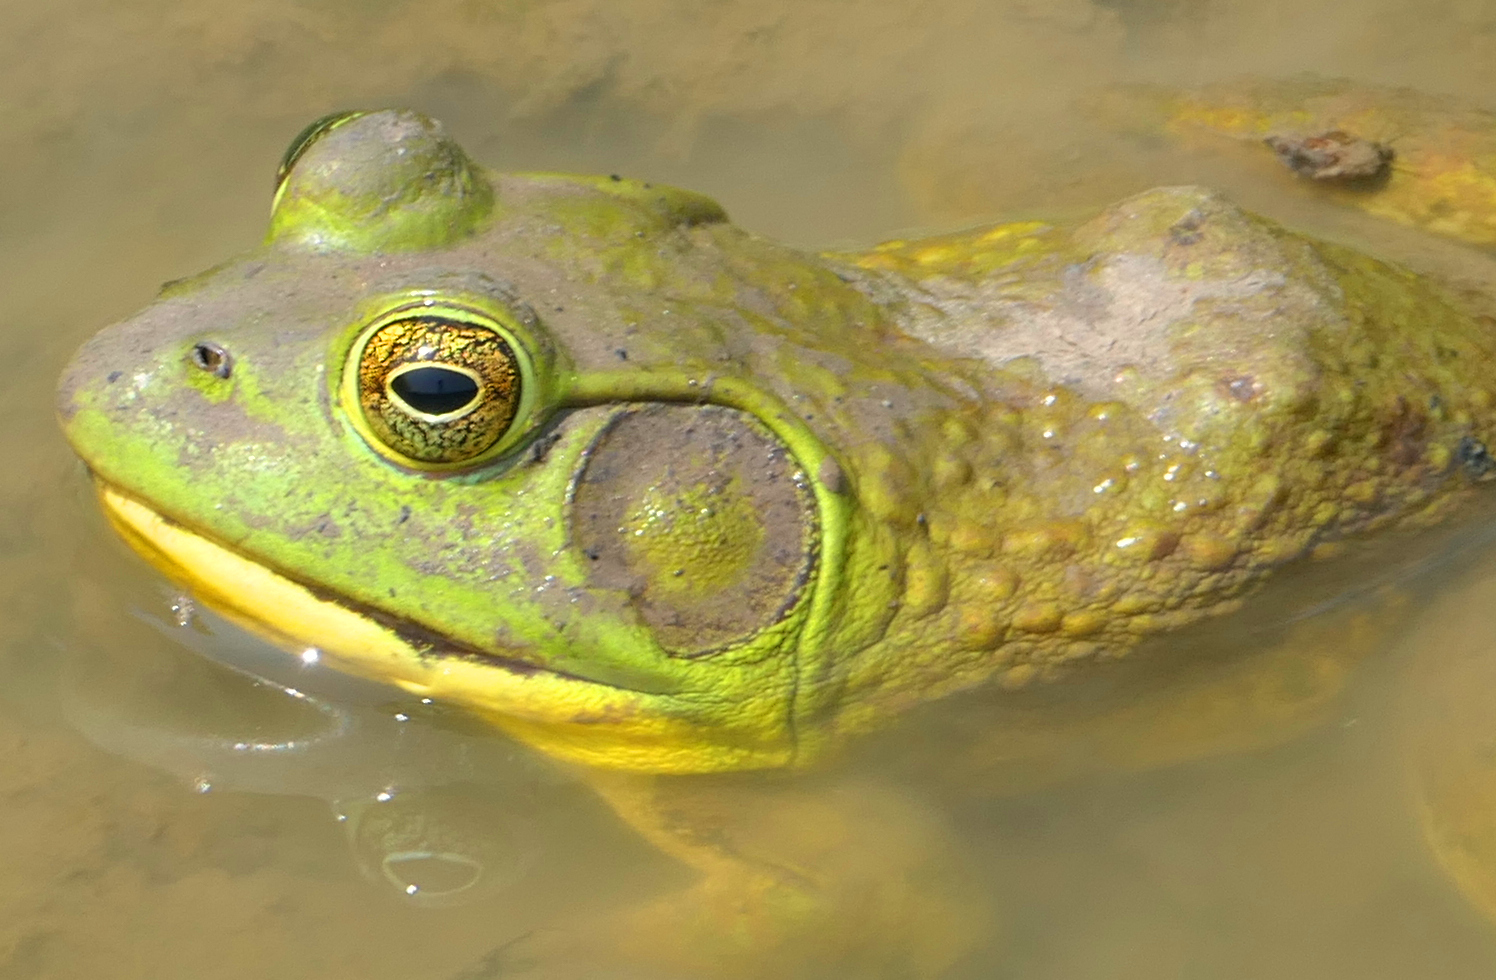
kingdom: Animalia
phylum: Chordata
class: Amphibia
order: Anura
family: Ranidae
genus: Lithobates
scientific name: Lithobates catesbeianus
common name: American bullfrog
